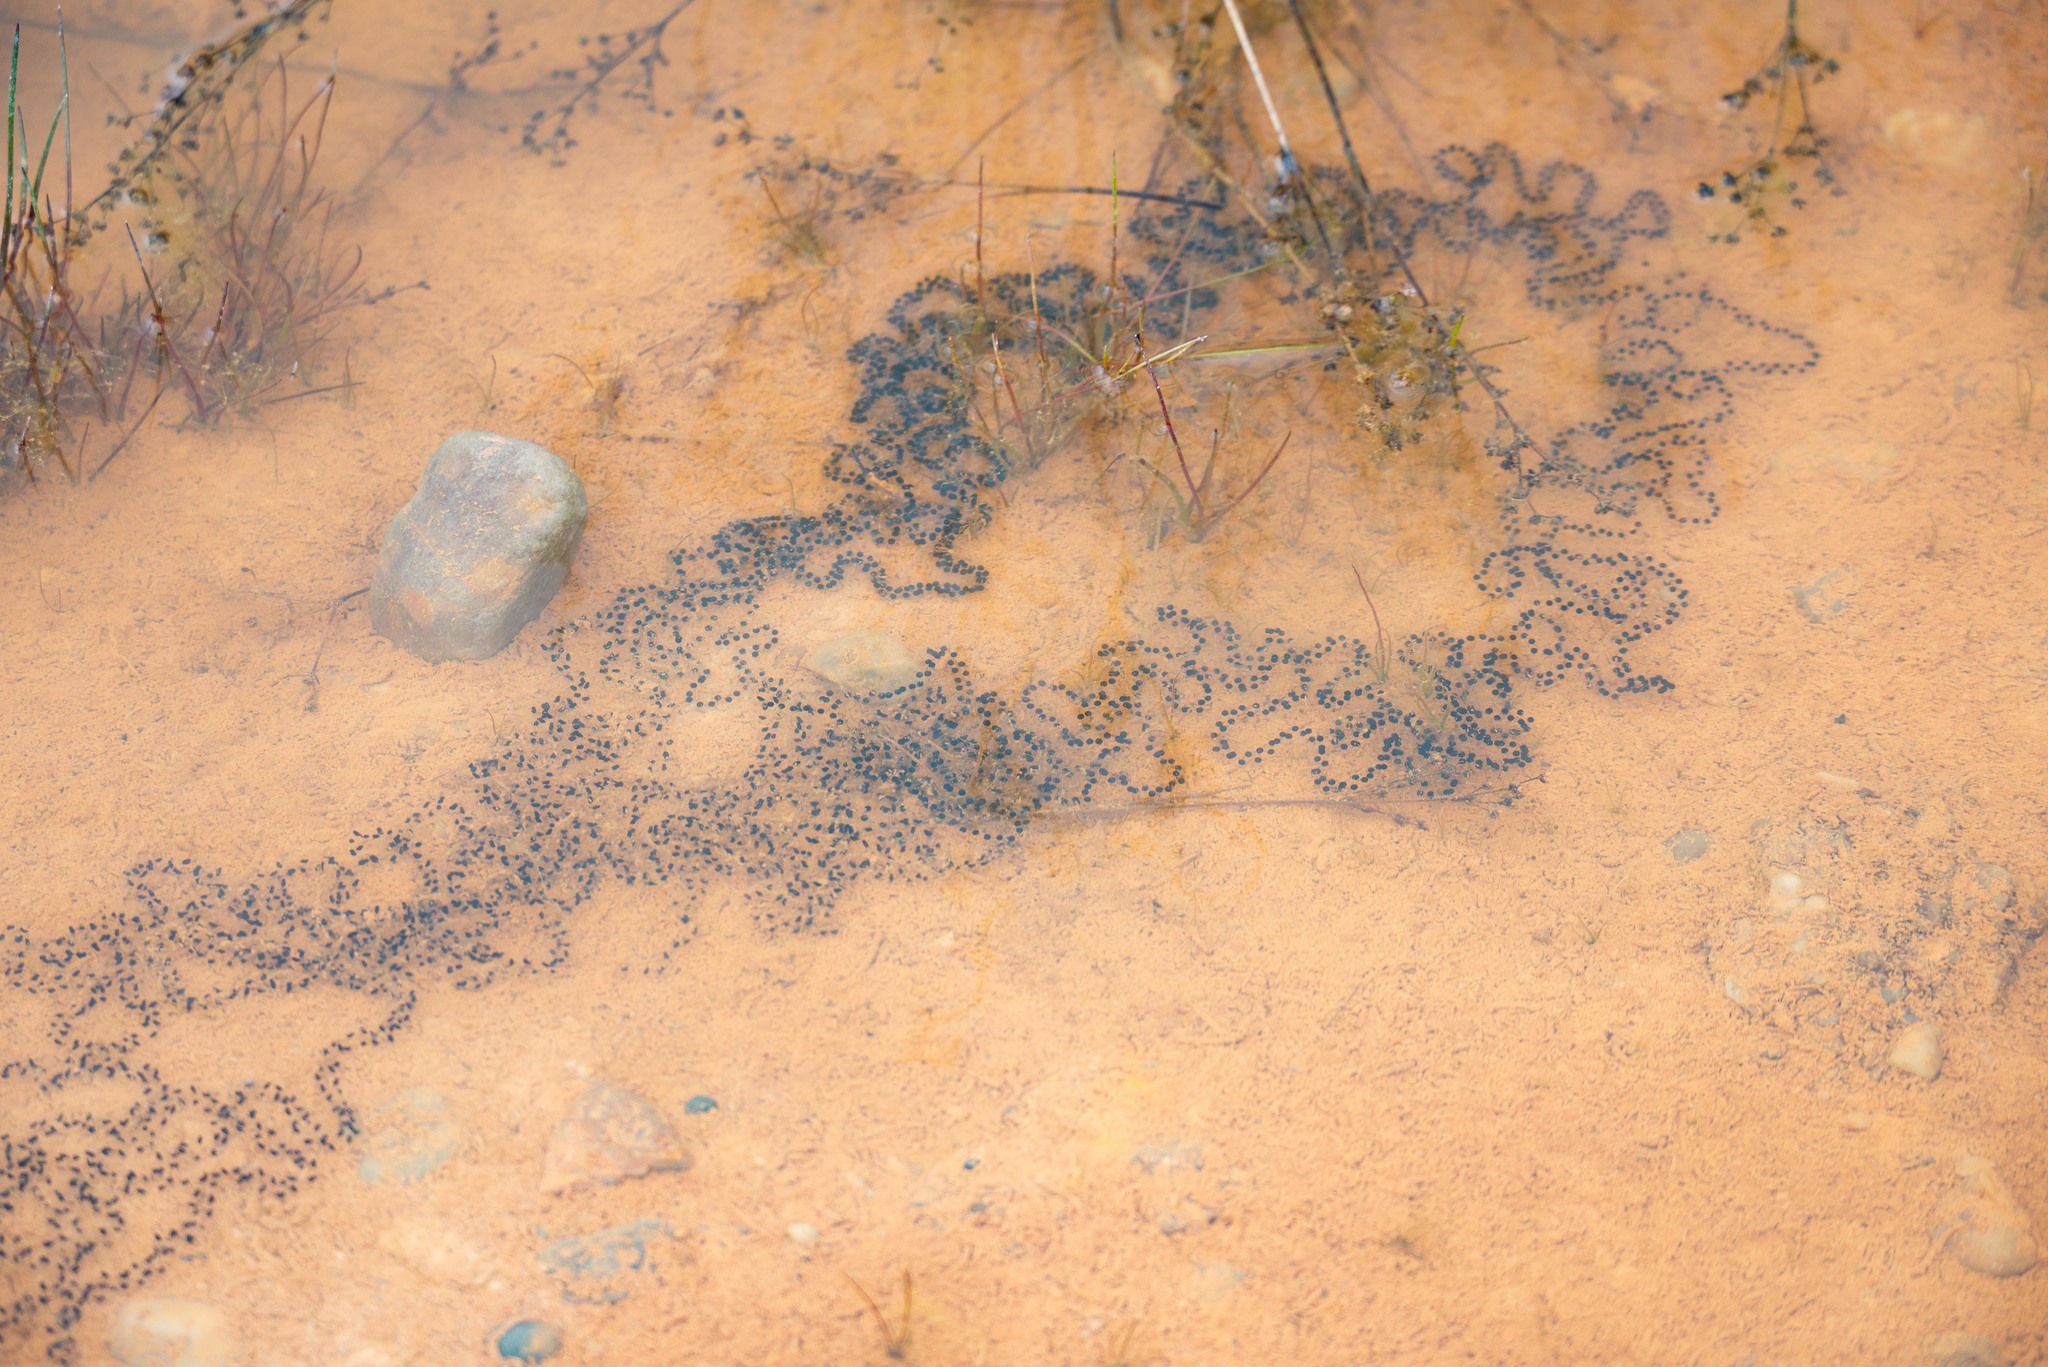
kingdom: Animalia
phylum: Chordata
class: Amphibia
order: Anura
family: Bufonidae
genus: Epidalea
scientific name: Epidalea calamita
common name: Natterjack toad
